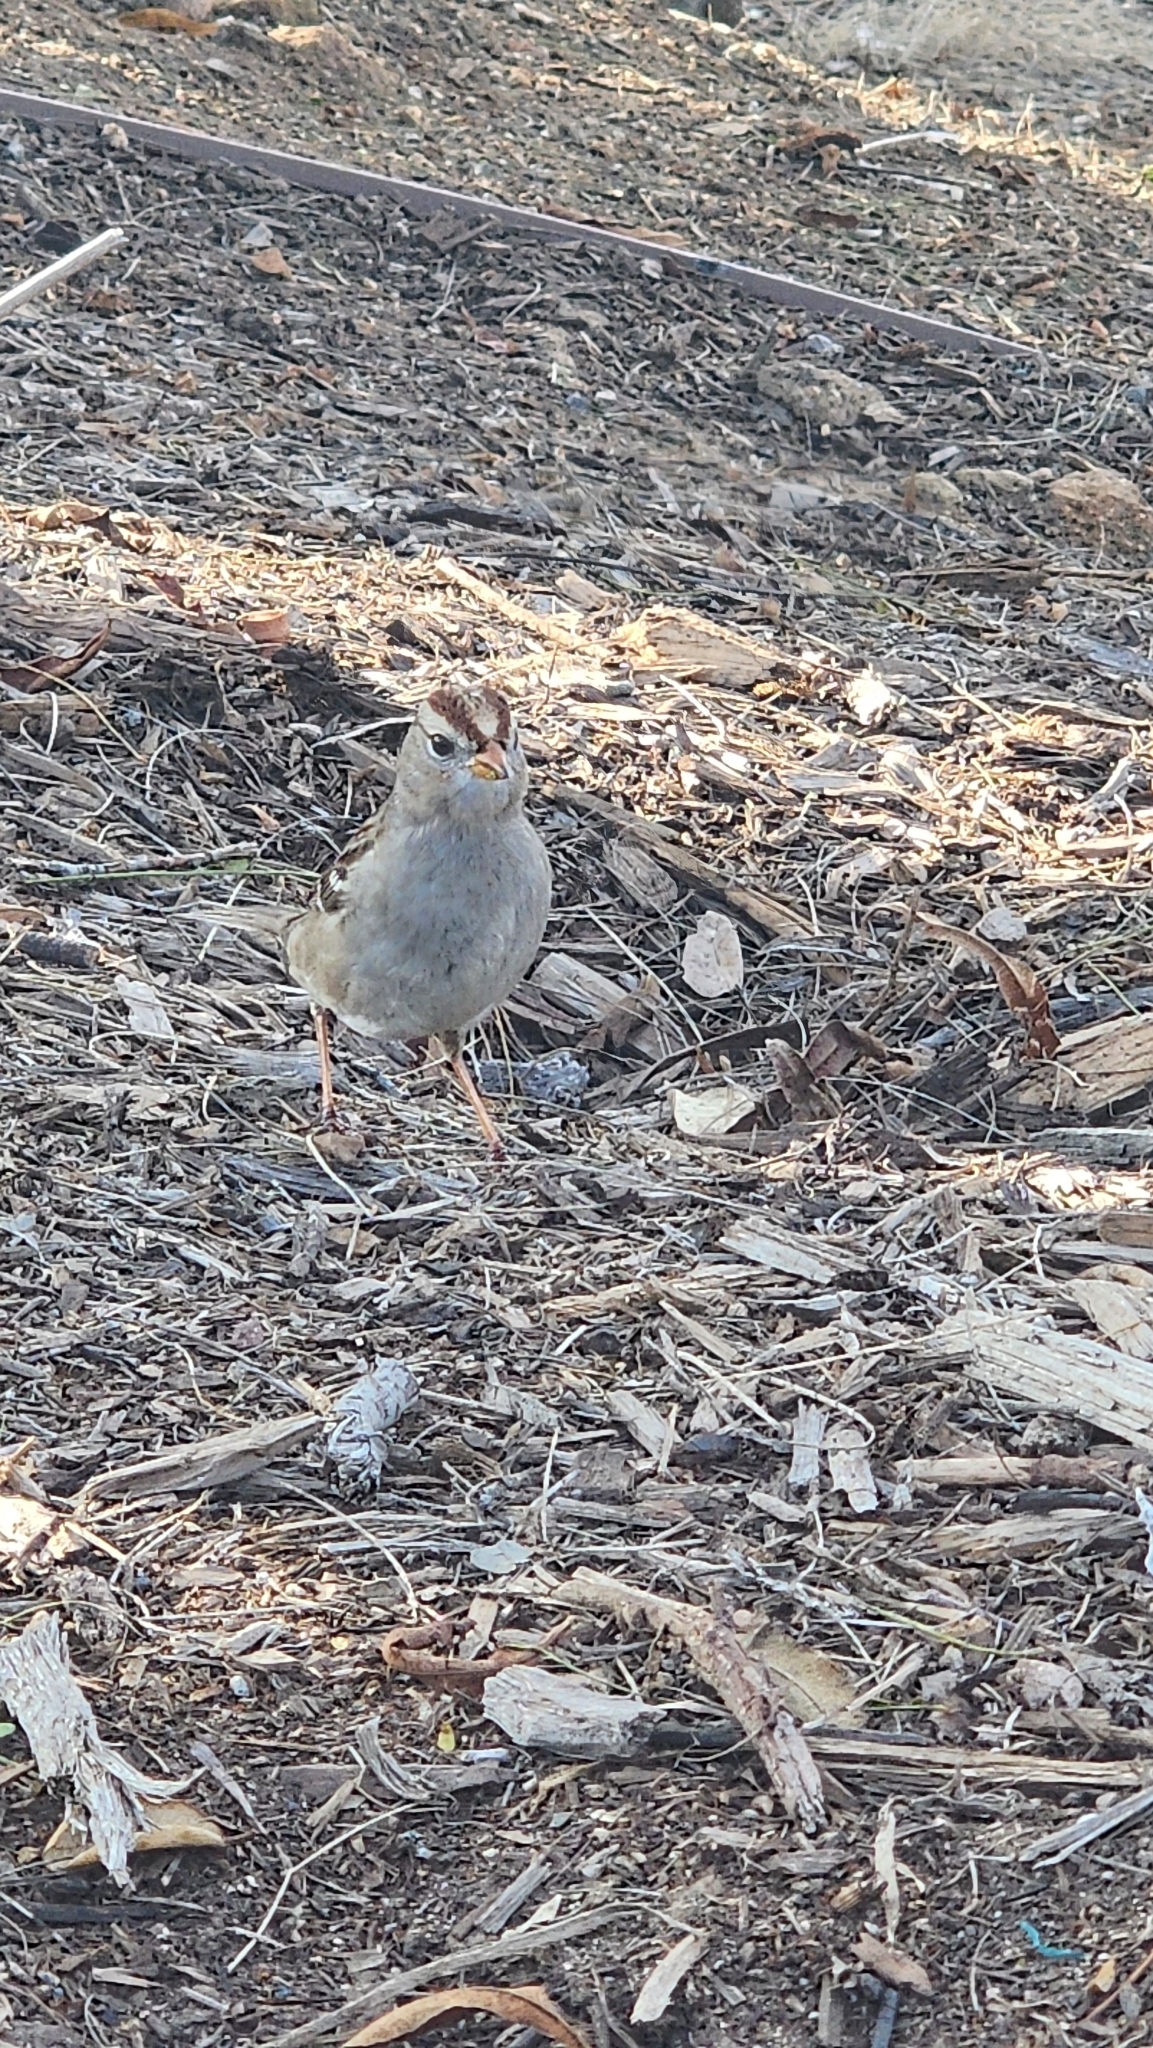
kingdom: Animalia
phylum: Chordata
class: Aves
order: Passeriformes
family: Passerellidae
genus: Zonotrichia
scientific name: Zonotrichia leucophrys
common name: White-crowned sparrow
